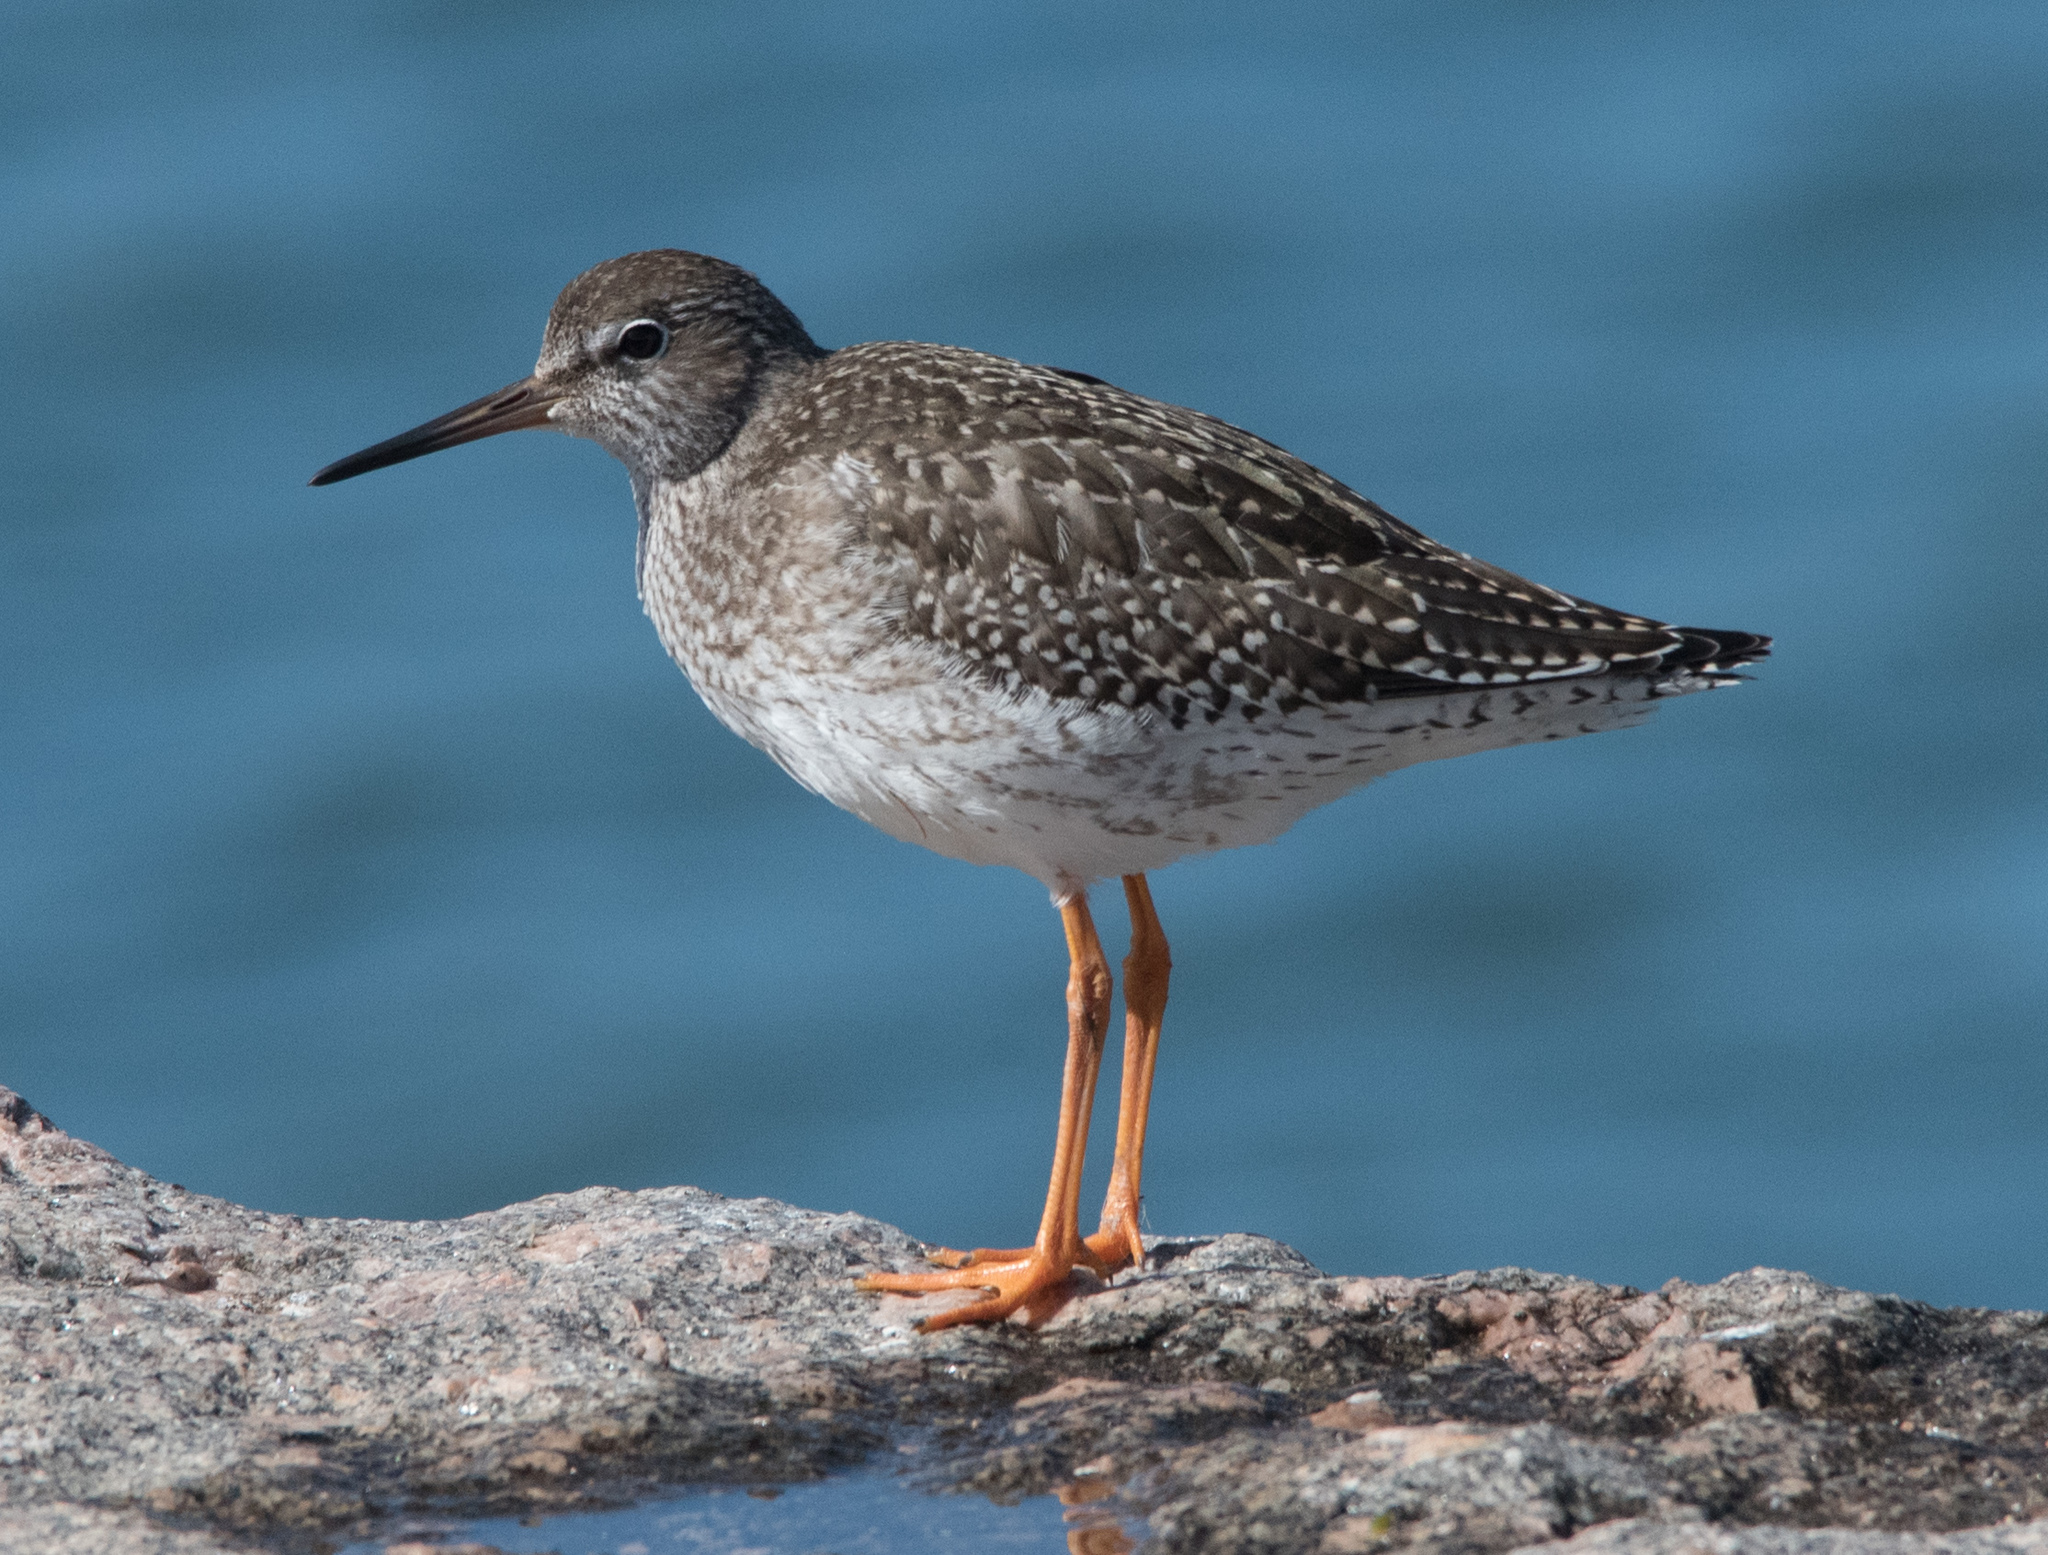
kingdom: Animalia
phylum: Chordata
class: Aves
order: Charadriiformes
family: Scolopacidae
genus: Tringa
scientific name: Tringa totanus
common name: Common redshank
